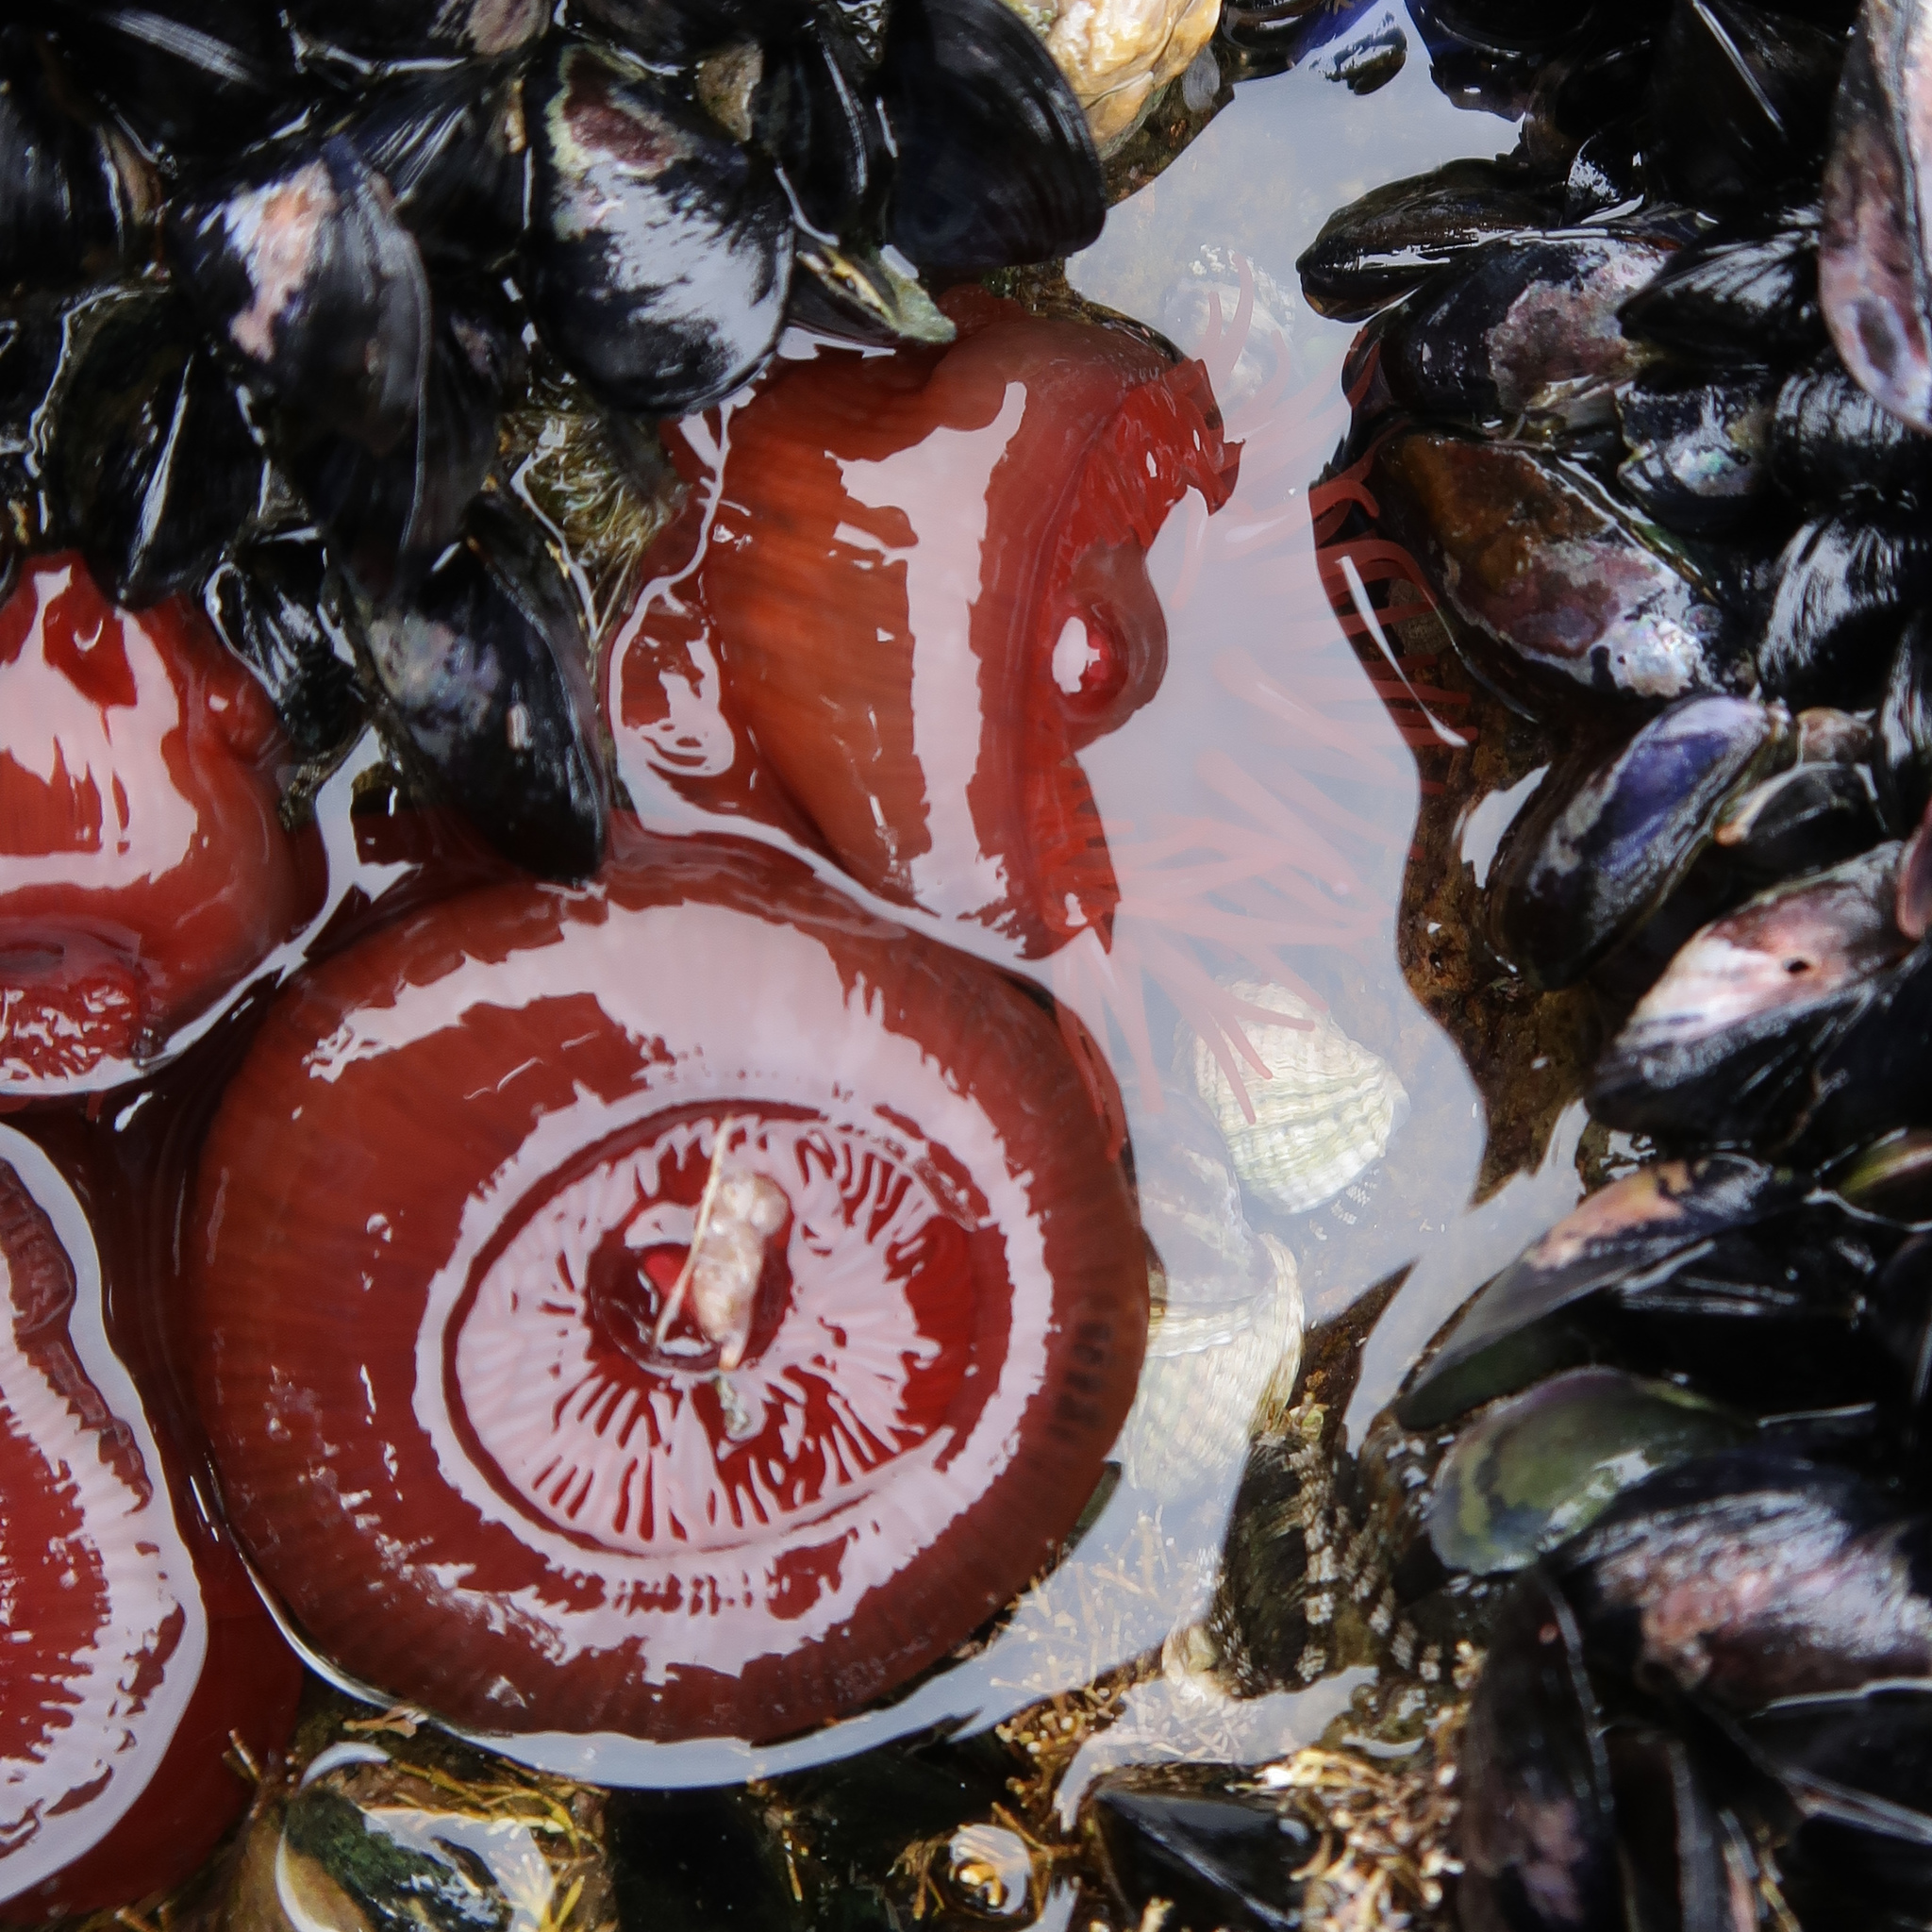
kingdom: Animalia
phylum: Cnidaria
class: Anthozoa
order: Actiniaria
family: Actiniidae
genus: Actinia
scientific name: Actinia tenebrosa
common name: Waratah anemone
